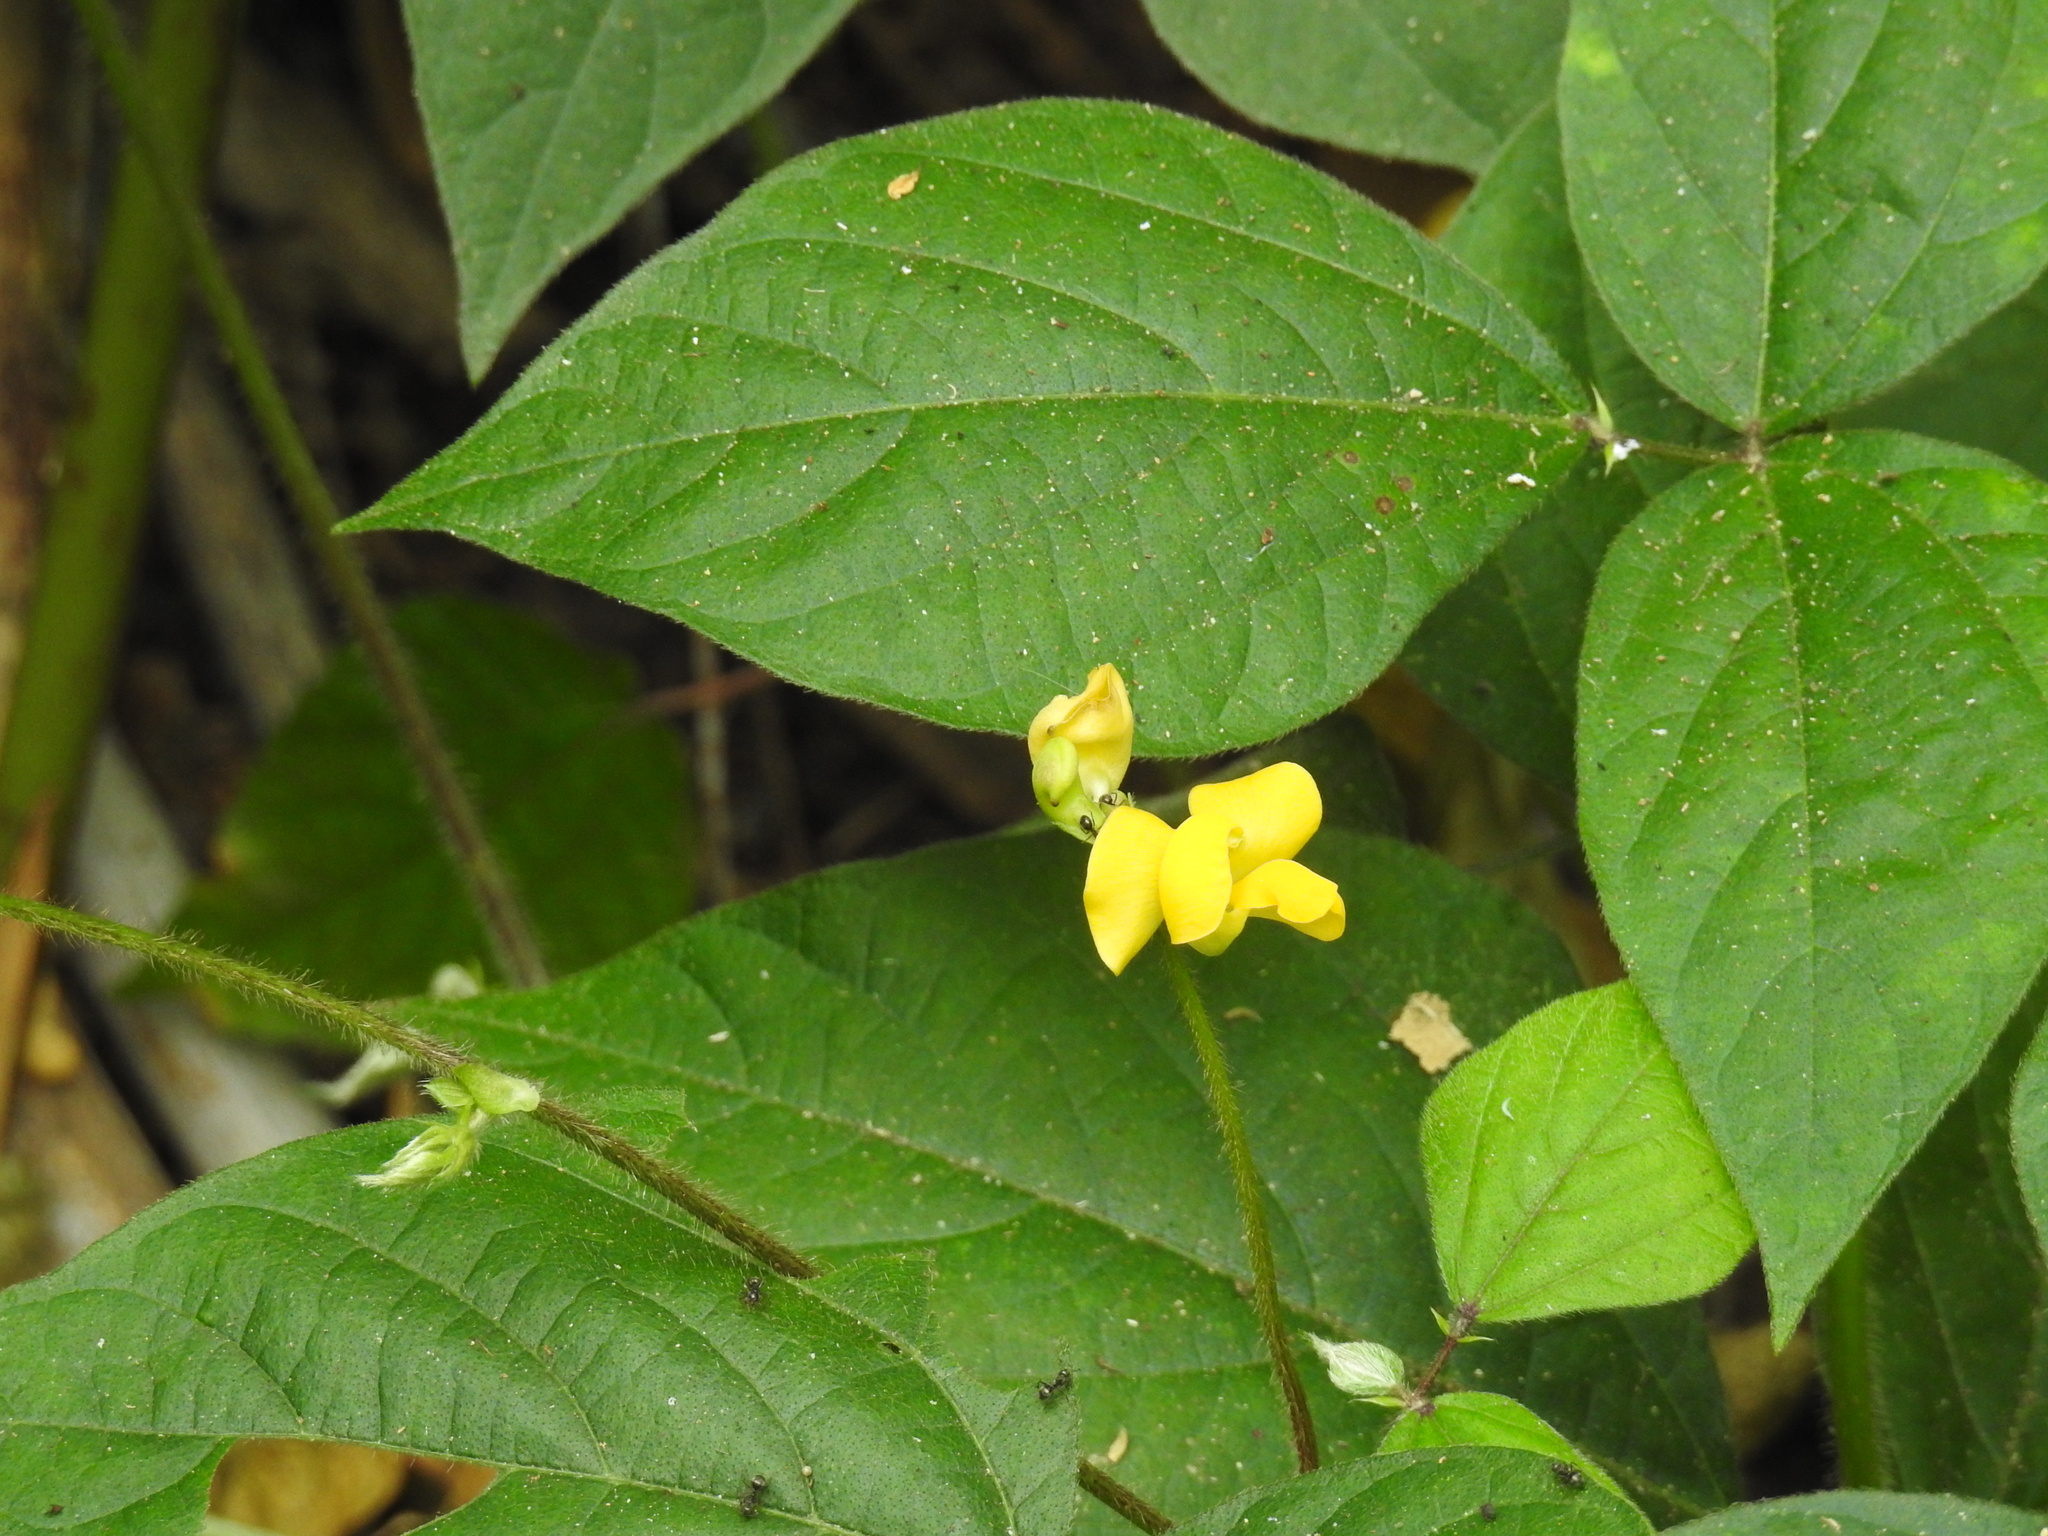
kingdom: Plantae
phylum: Tracheophyta
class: Magnoliopsida
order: Fabales
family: Fabaceae
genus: Vigna
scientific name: Vigna reflexopilosa
